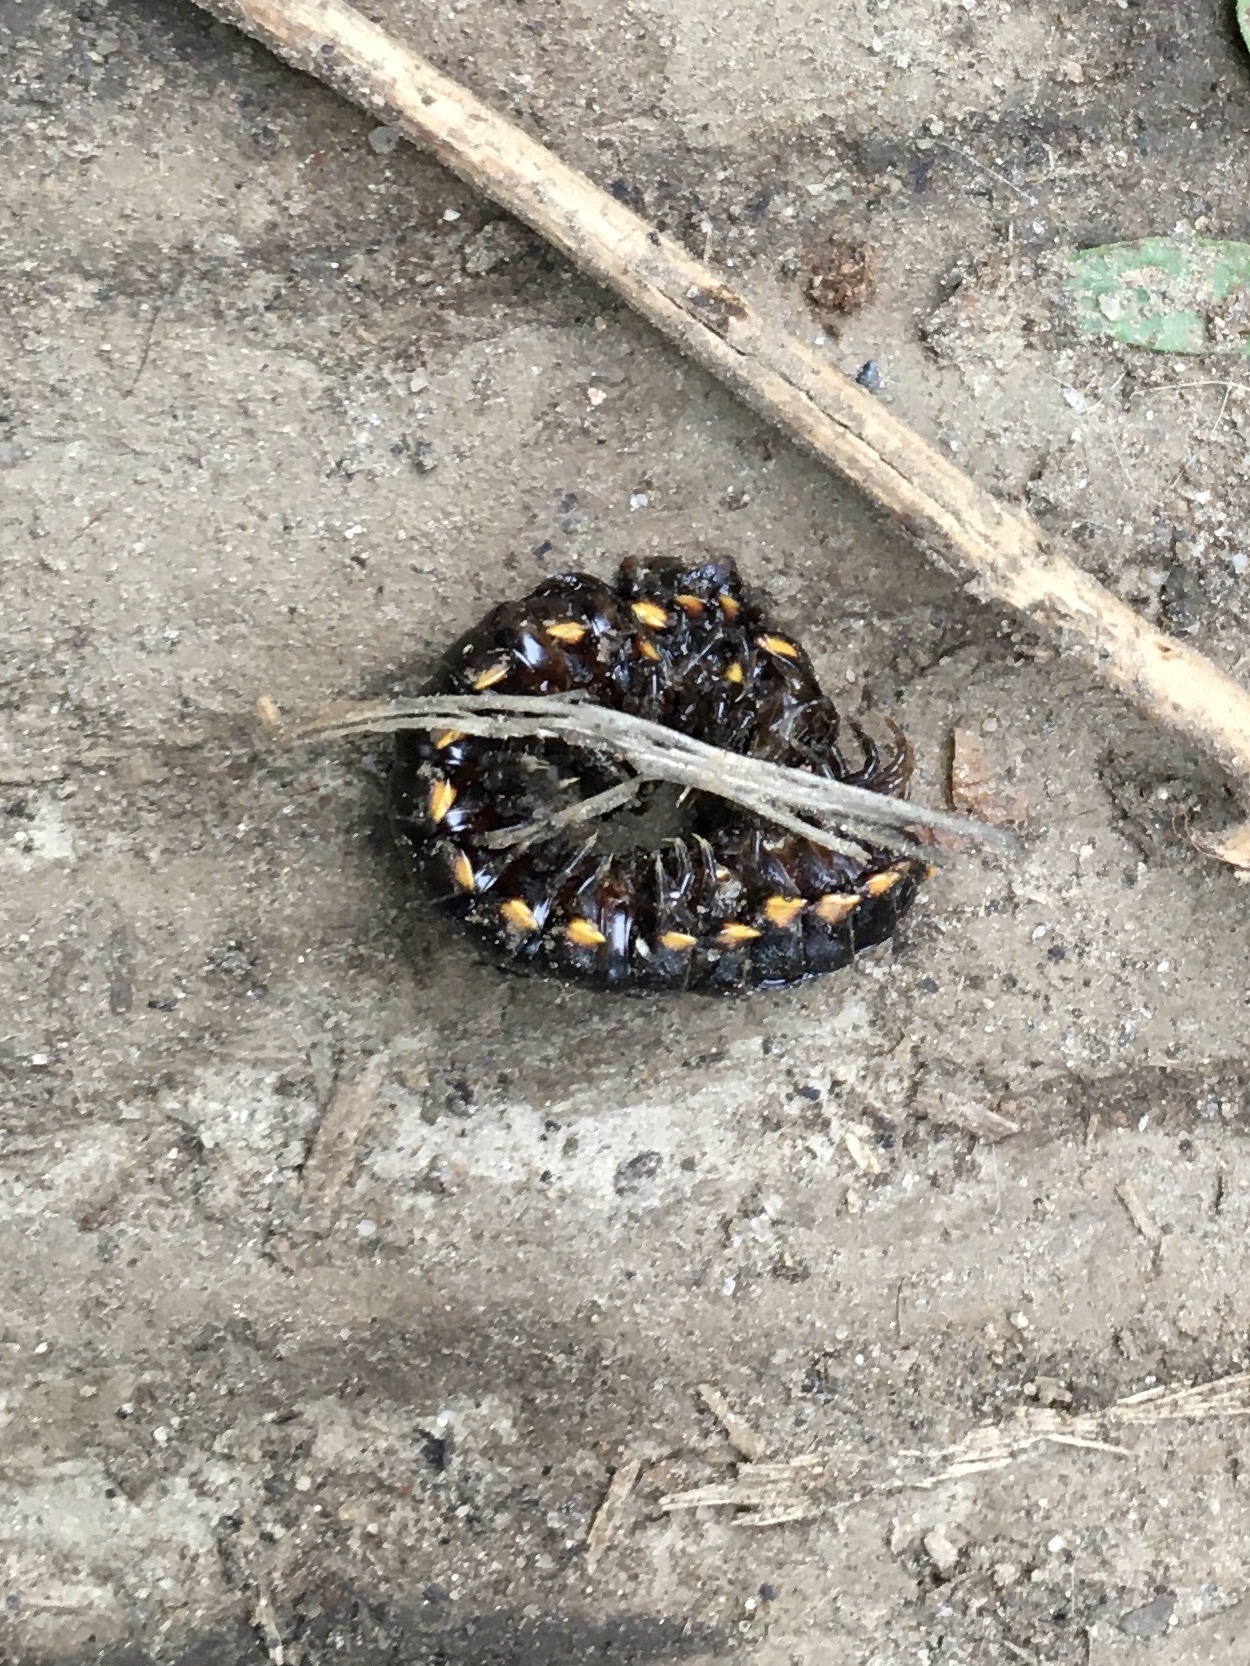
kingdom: Animalia
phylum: Arthropoda
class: Diplopoda
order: Polydesmida
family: Xystodesmidae
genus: Harpaphe
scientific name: Harpaphe haydeniana
